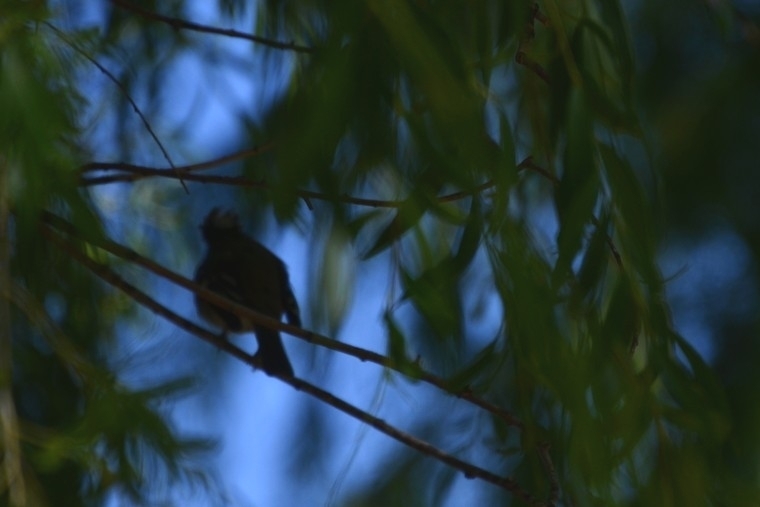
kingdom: Animalia
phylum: Chordata
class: Aves
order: Passeriformes
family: Tyrannidae
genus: Elaenia
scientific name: Elaenia albiceps
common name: White-crested elaenia
